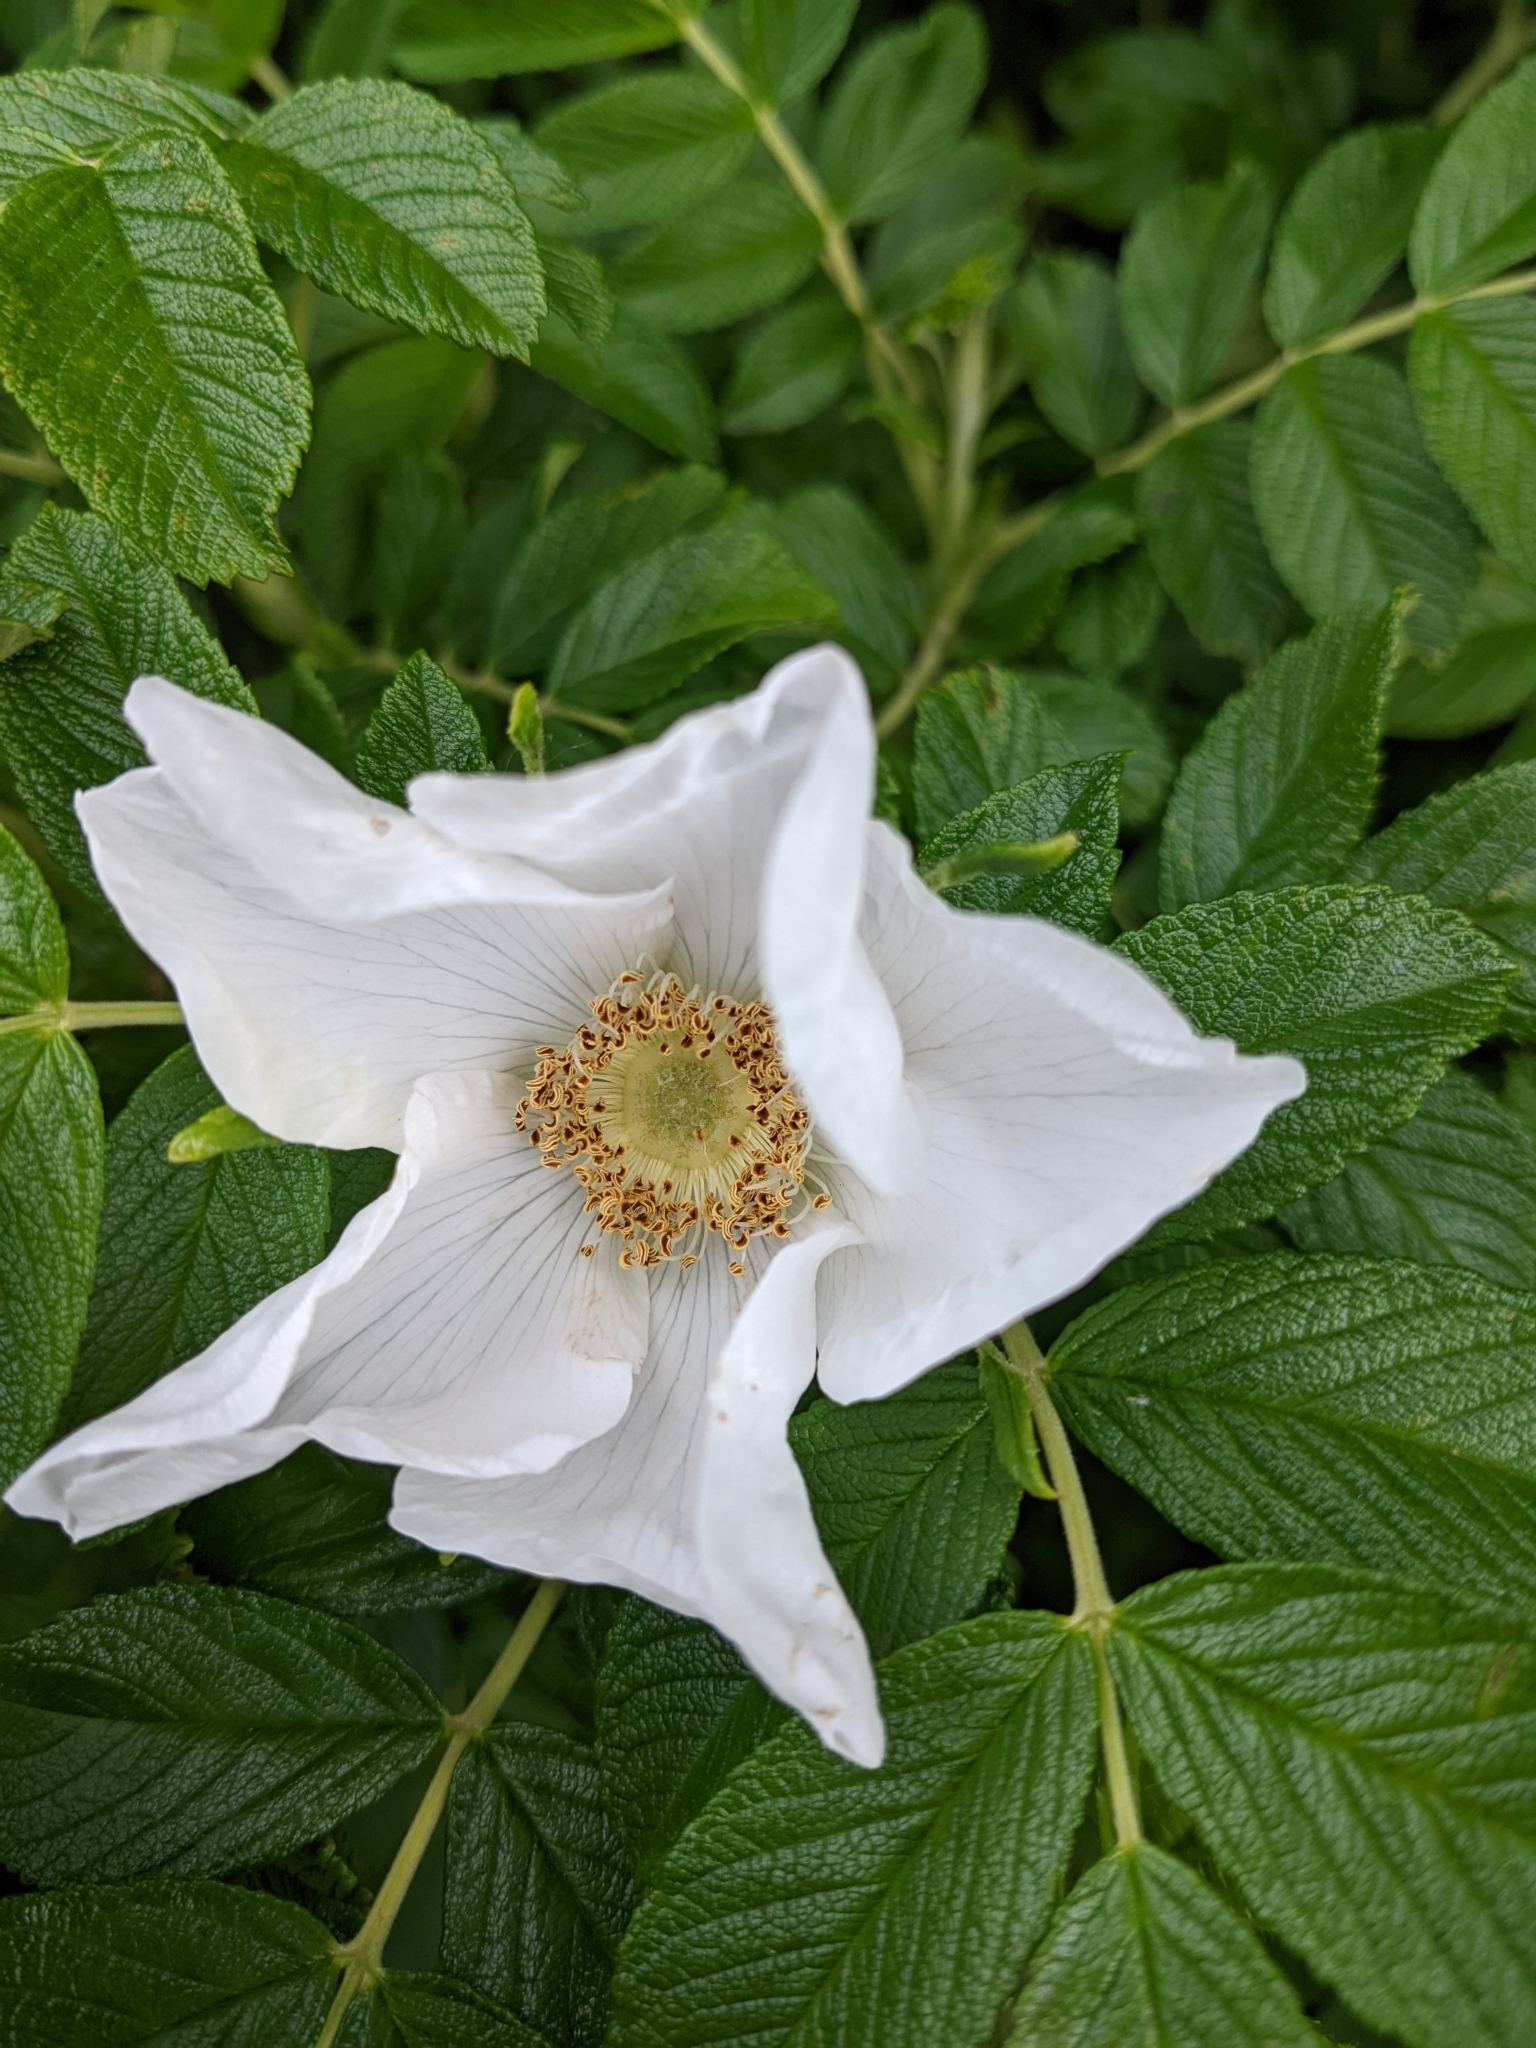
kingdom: Plantae
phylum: Tracheophyta
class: Magnoliopsida
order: Rosales
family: Rosaceae
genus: Rosa
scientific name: Rosa rugosa
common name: Japanese rose
